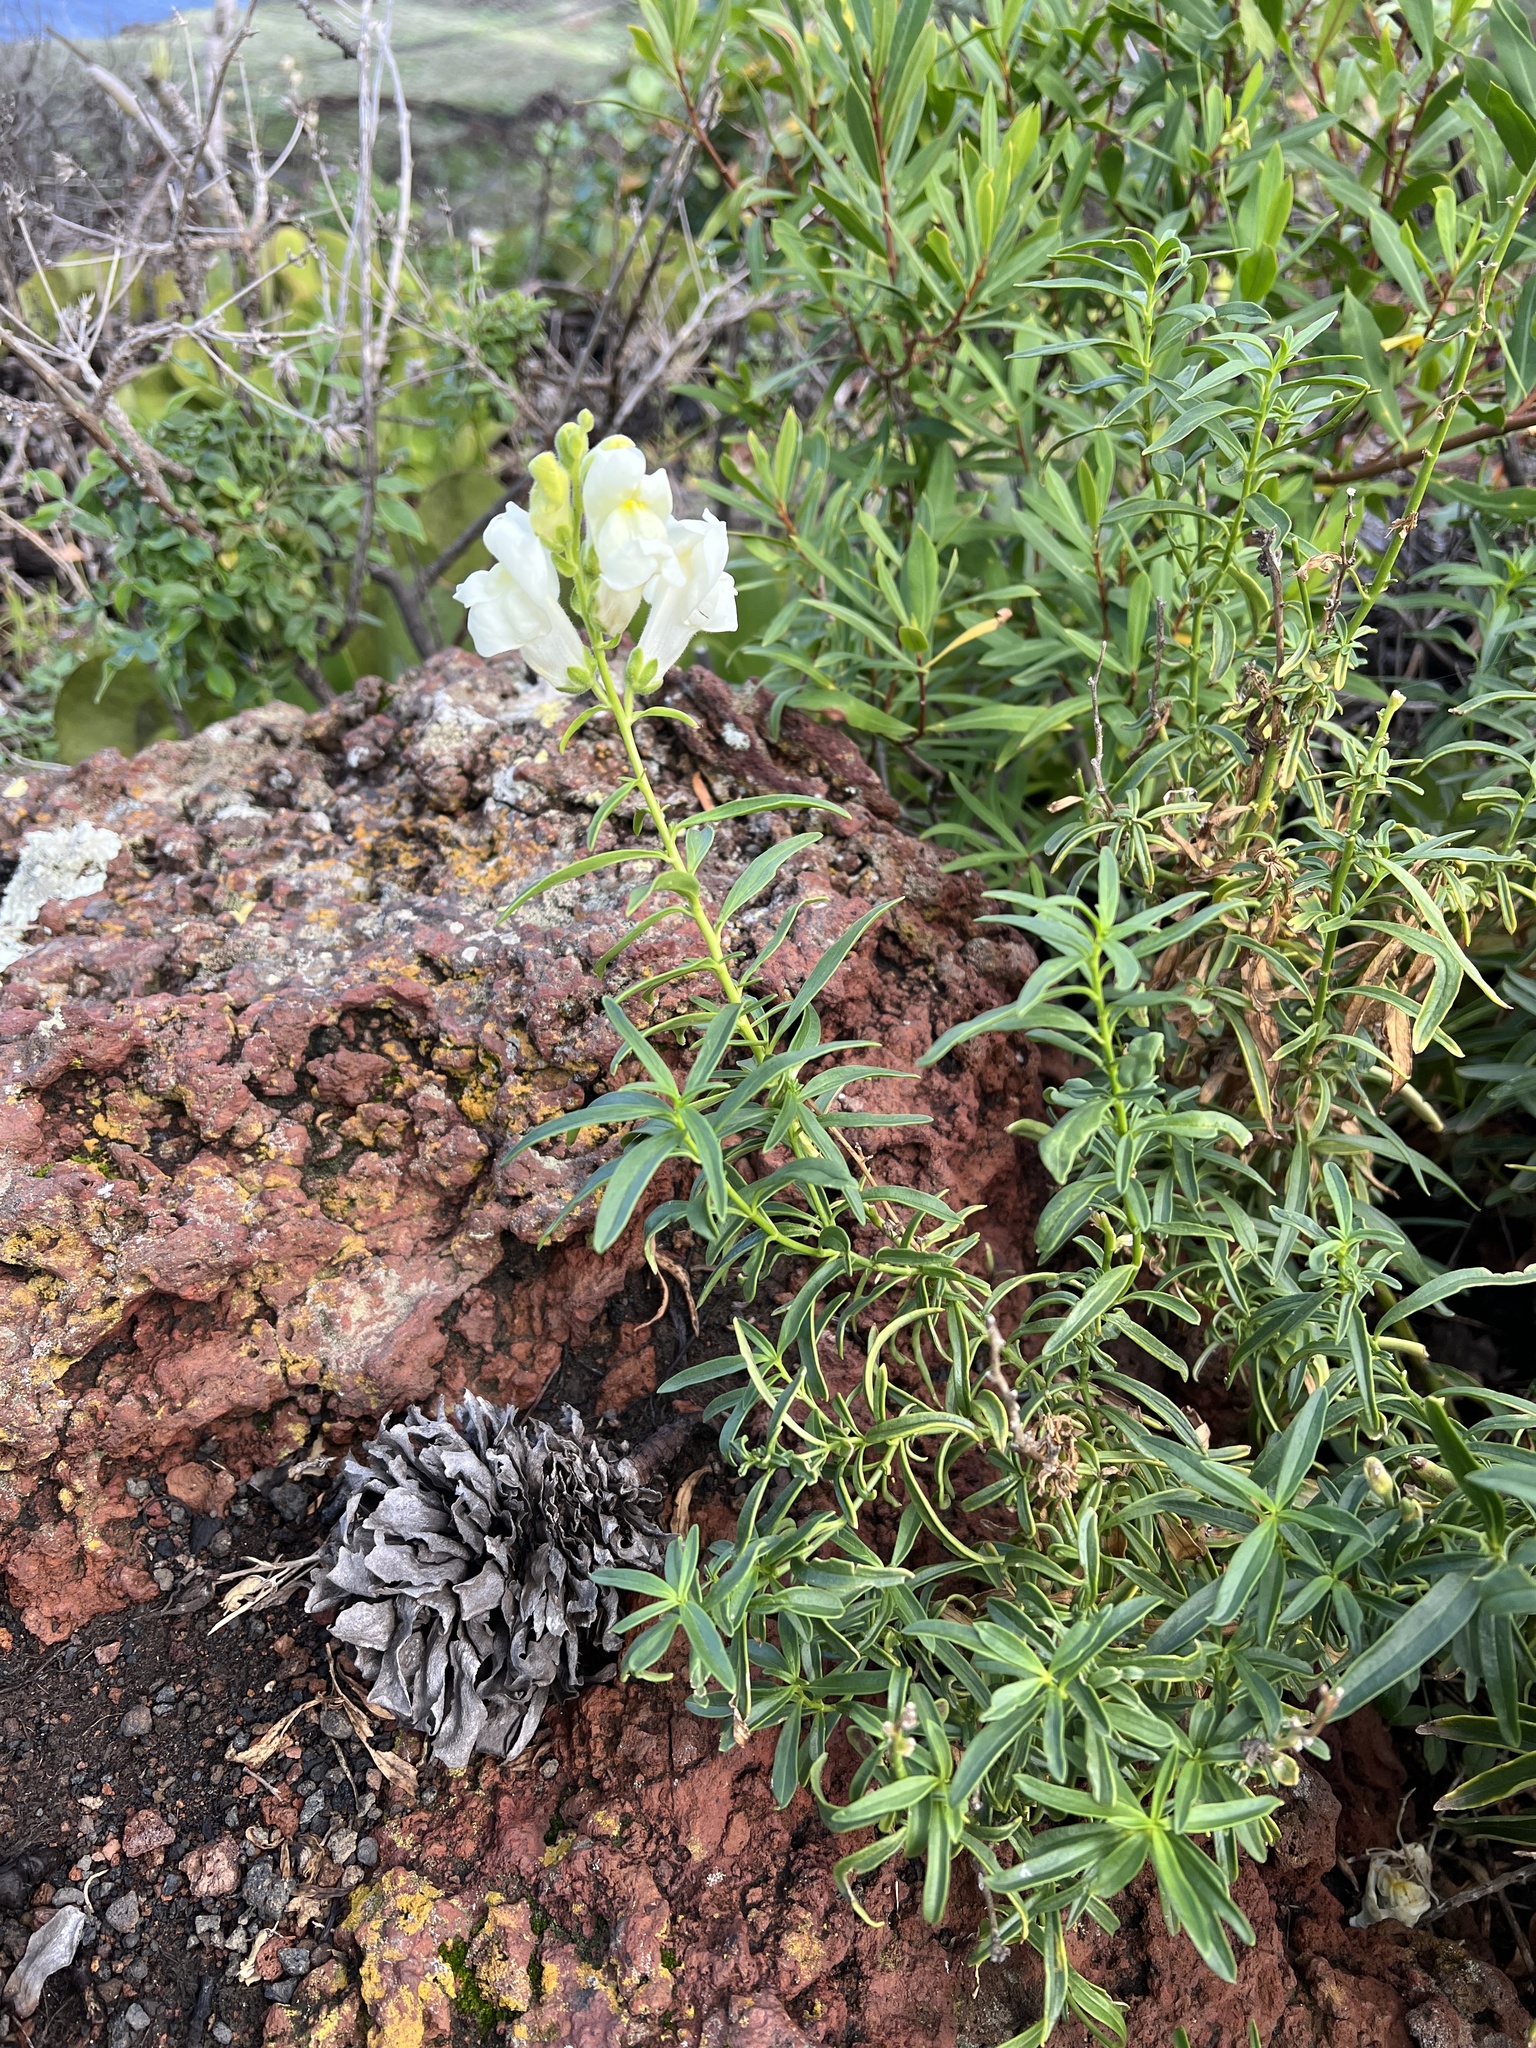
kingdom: Plantae
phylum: Tracheophyta
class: Magnoliopsida
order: Lamiales
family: Plantaginaceae
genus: Antirrhinum
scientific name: Antirrhinum majus
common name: Snapdragon
